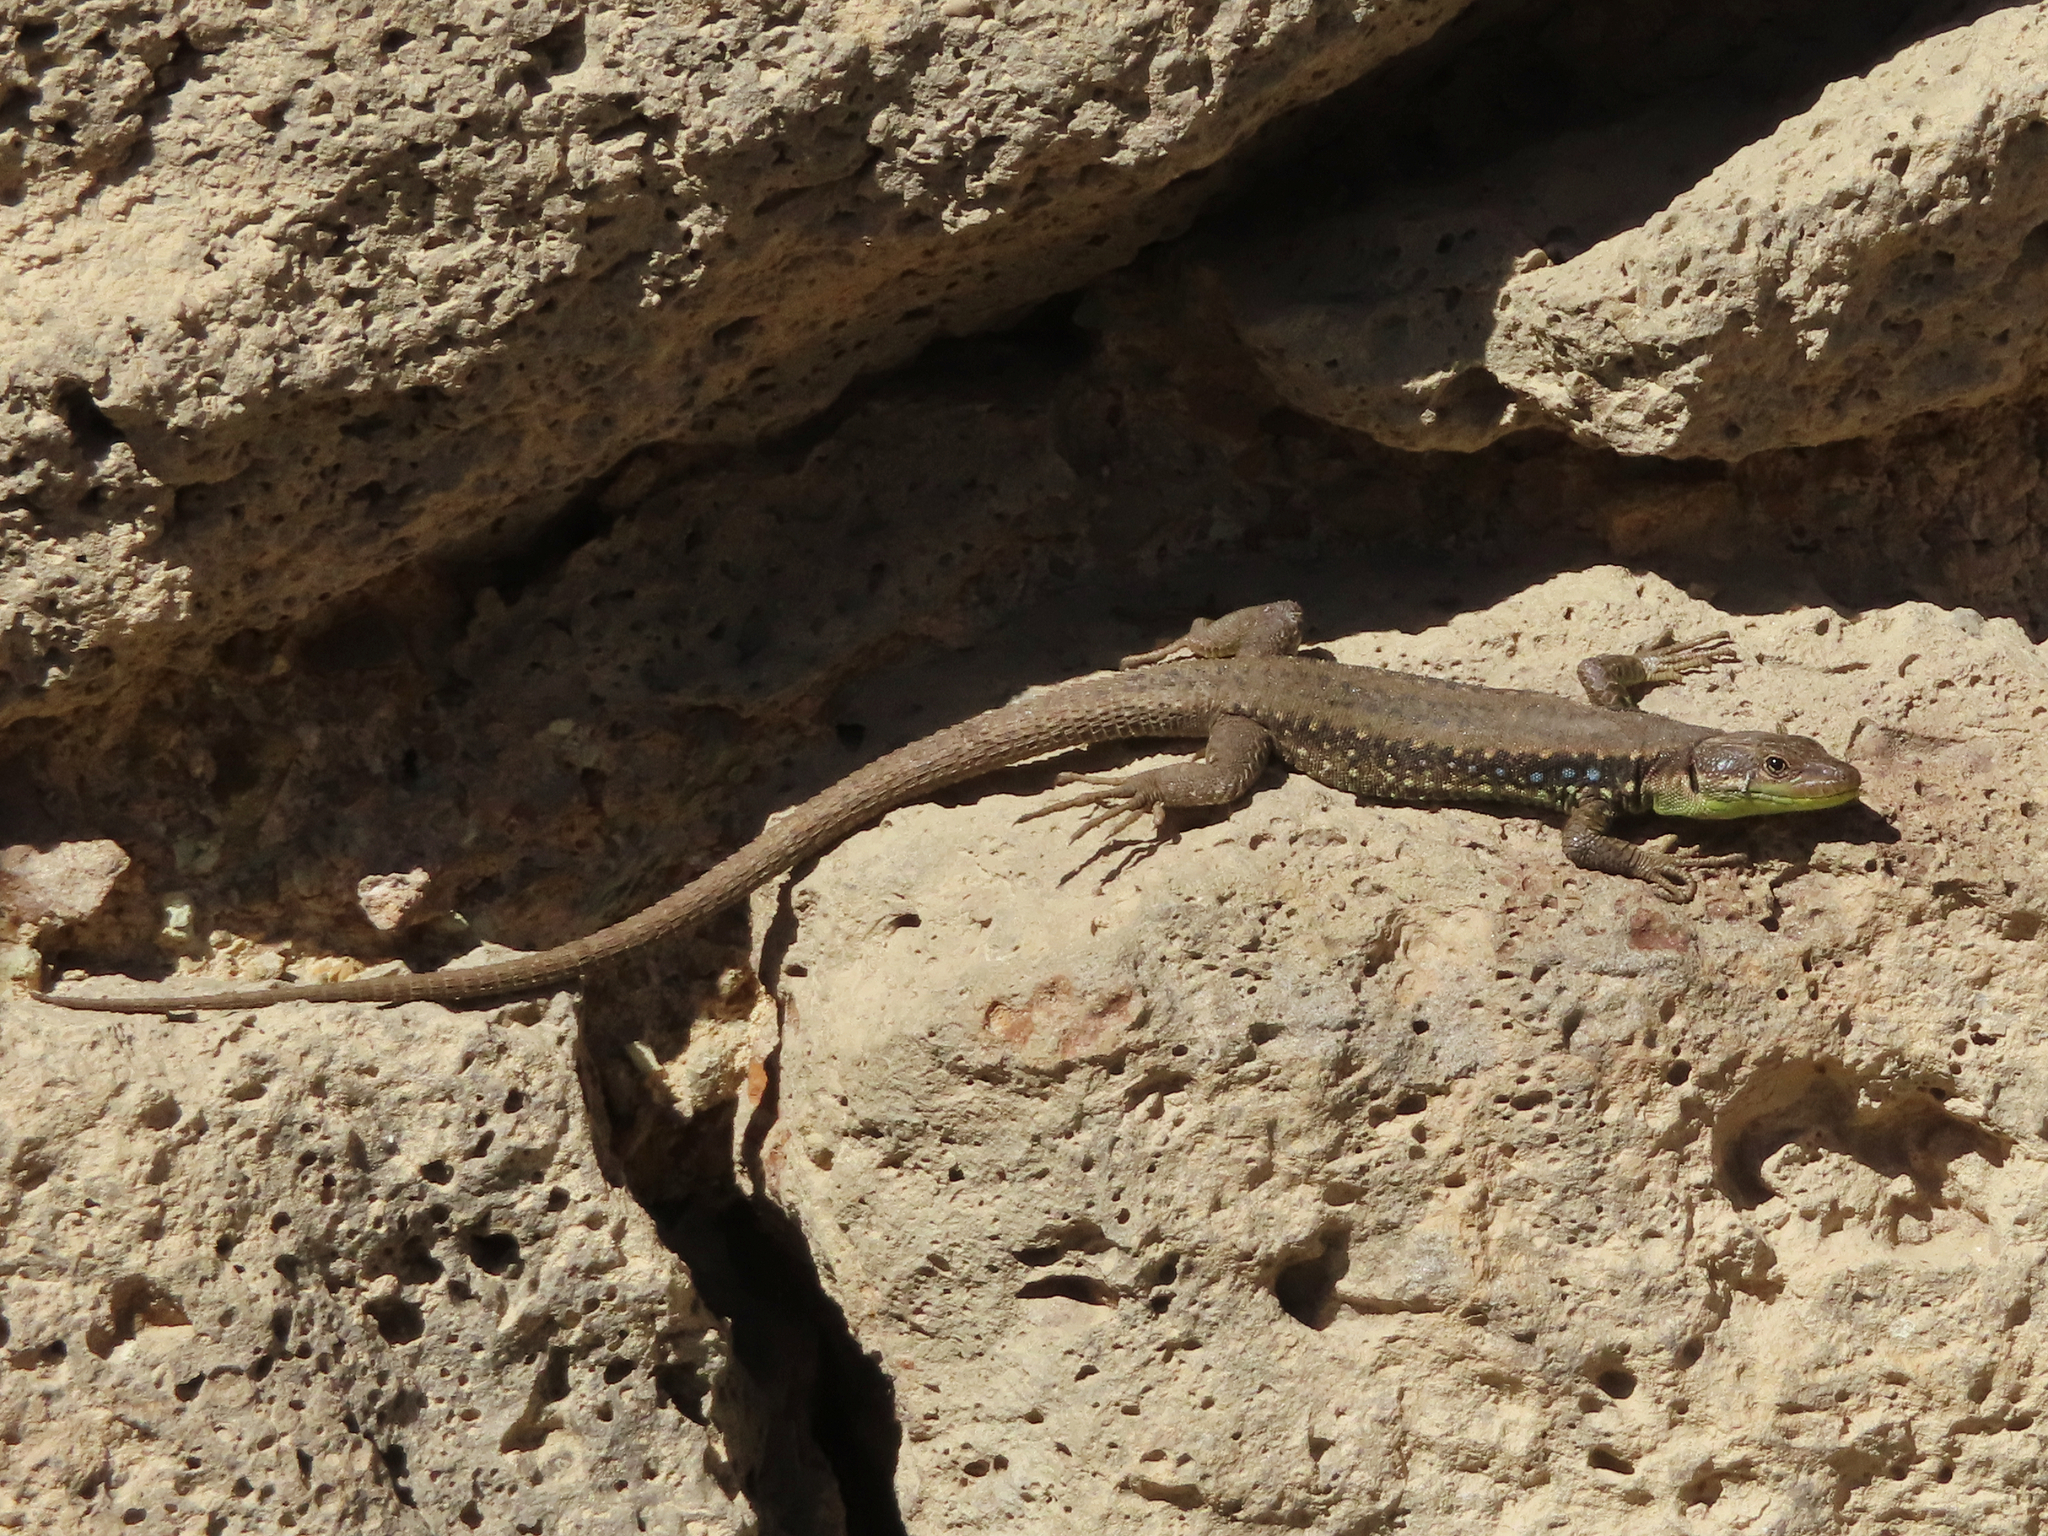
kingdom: Animalia
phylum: Chordata
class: Squamata
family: Lacertidae
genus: Darevskia
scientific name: Darevskia raddei
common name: Radde's lizard
